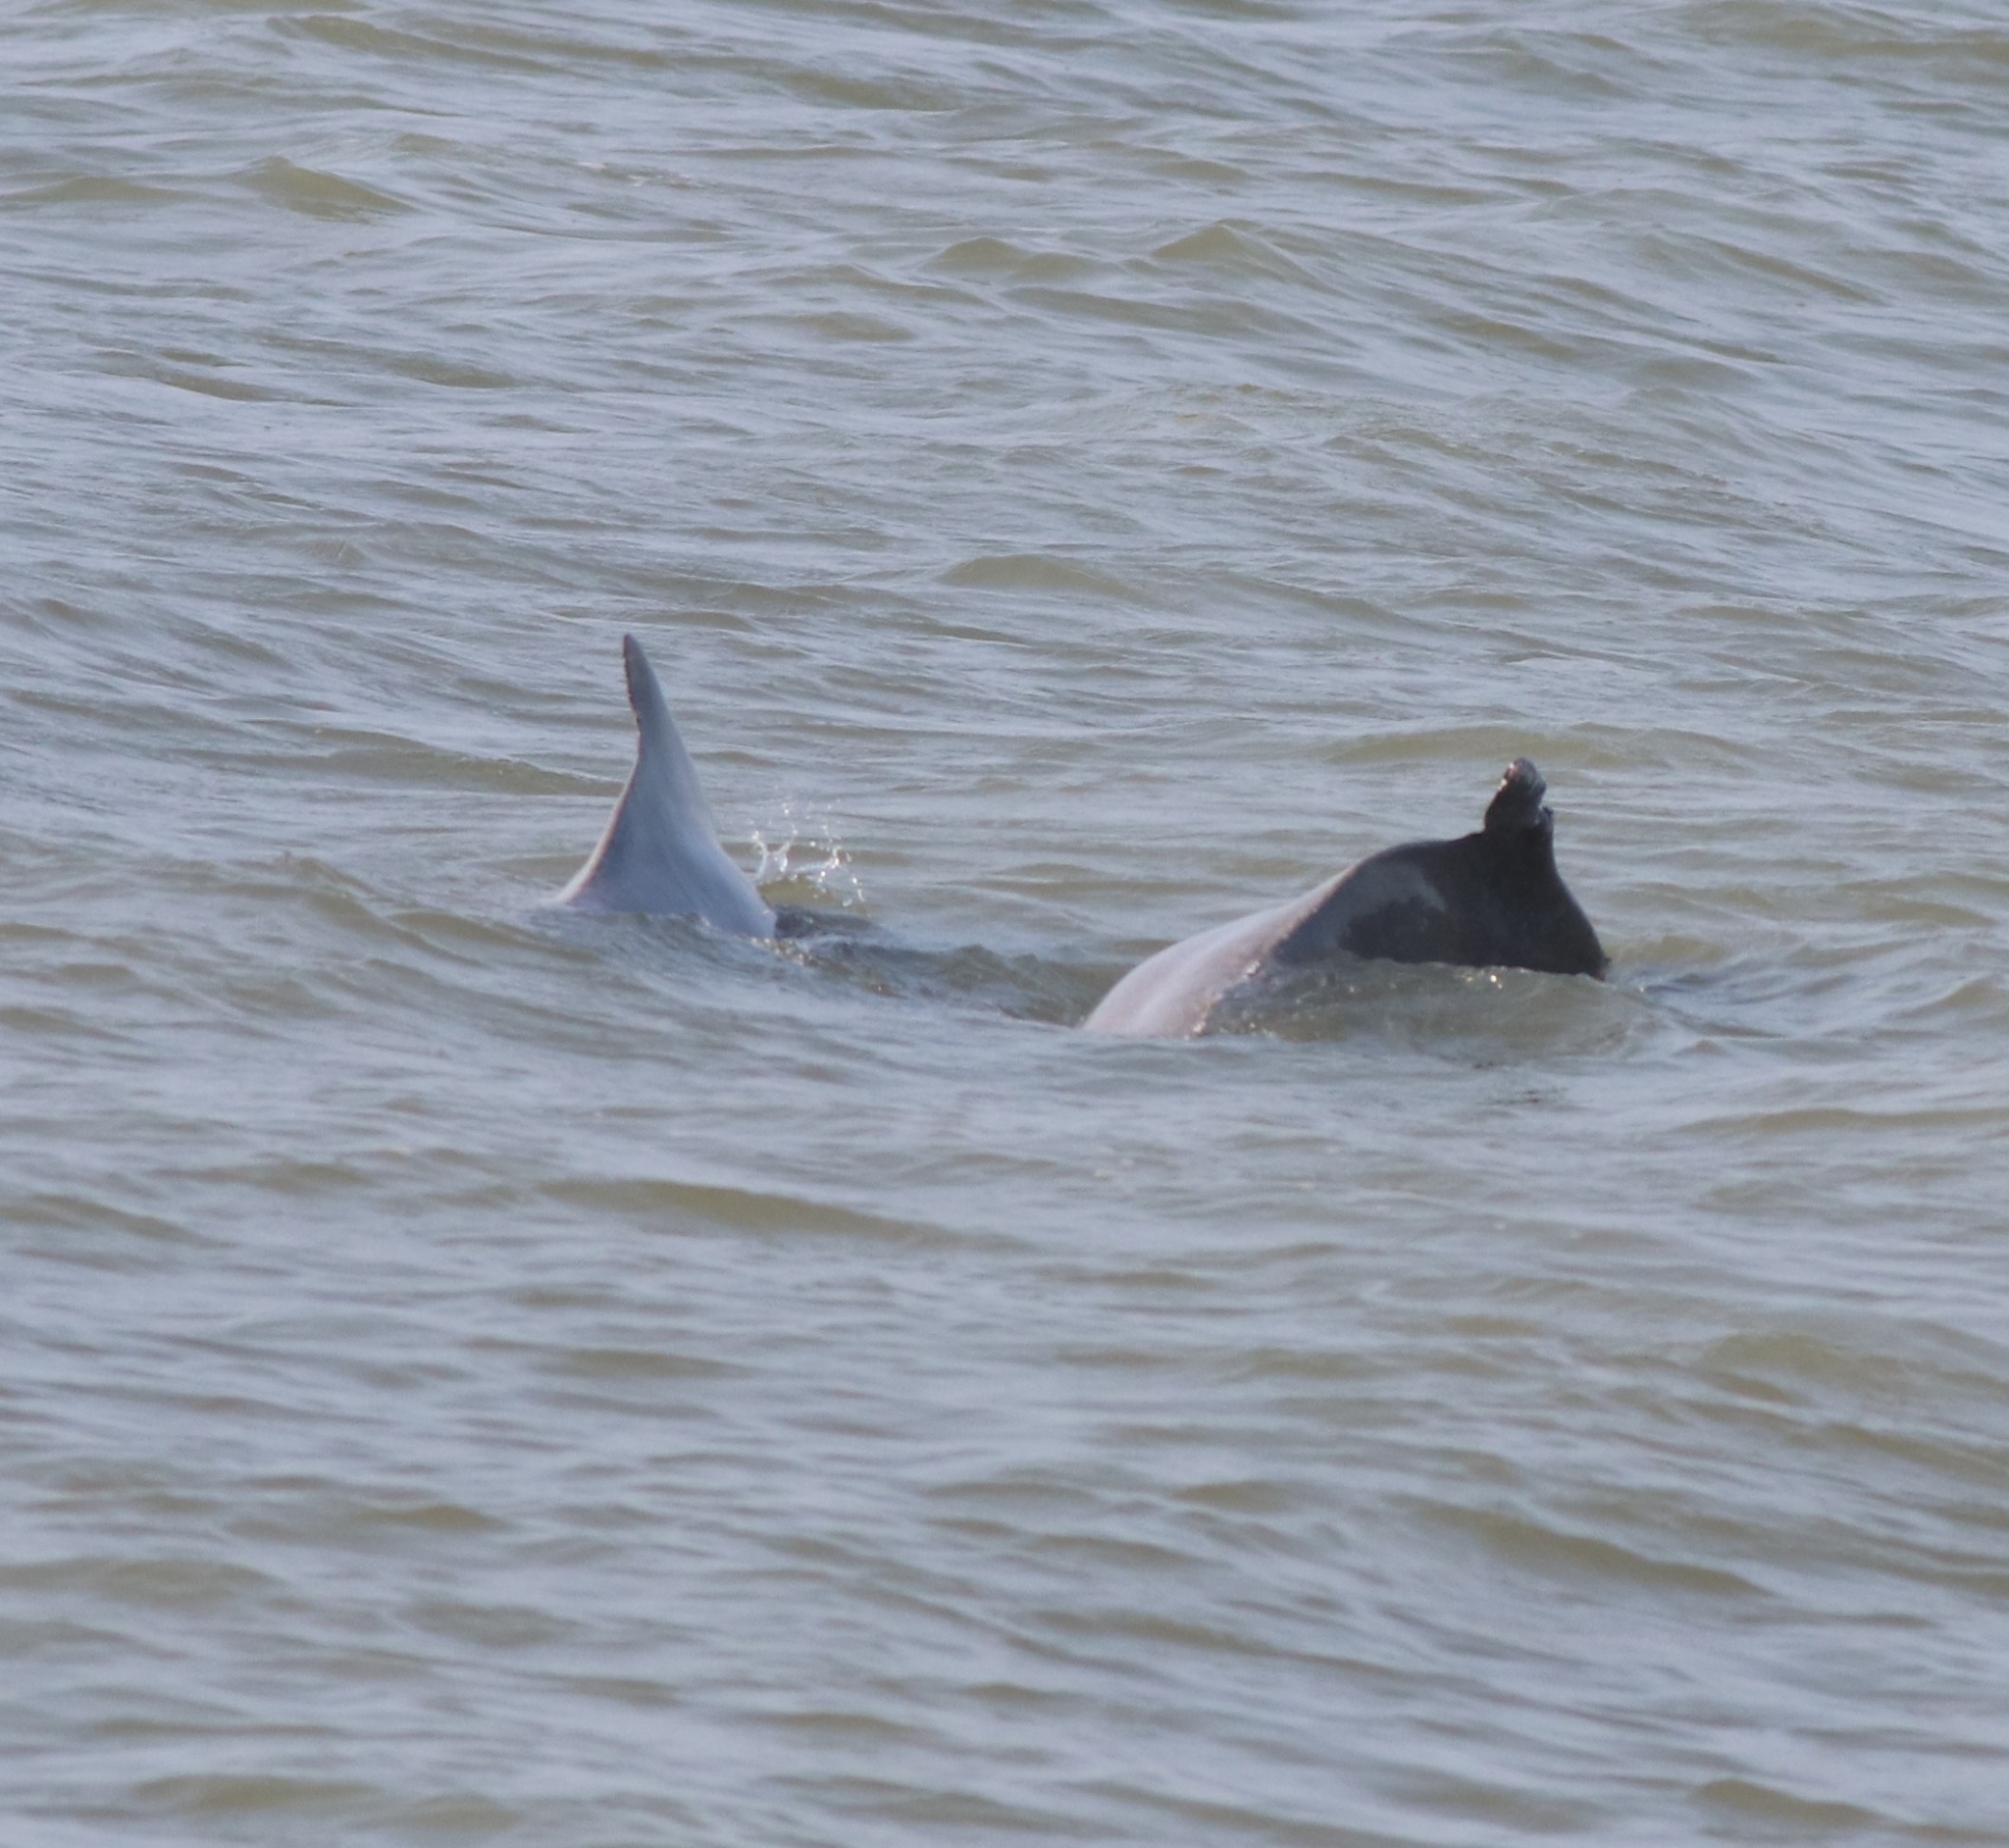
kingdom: Animalia
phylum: Chordata
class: Mammalia
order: Cetacea
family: Delphinidae
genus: Sousa
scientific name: Sousa plumbea
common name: Indian ocean humpback dolphin
